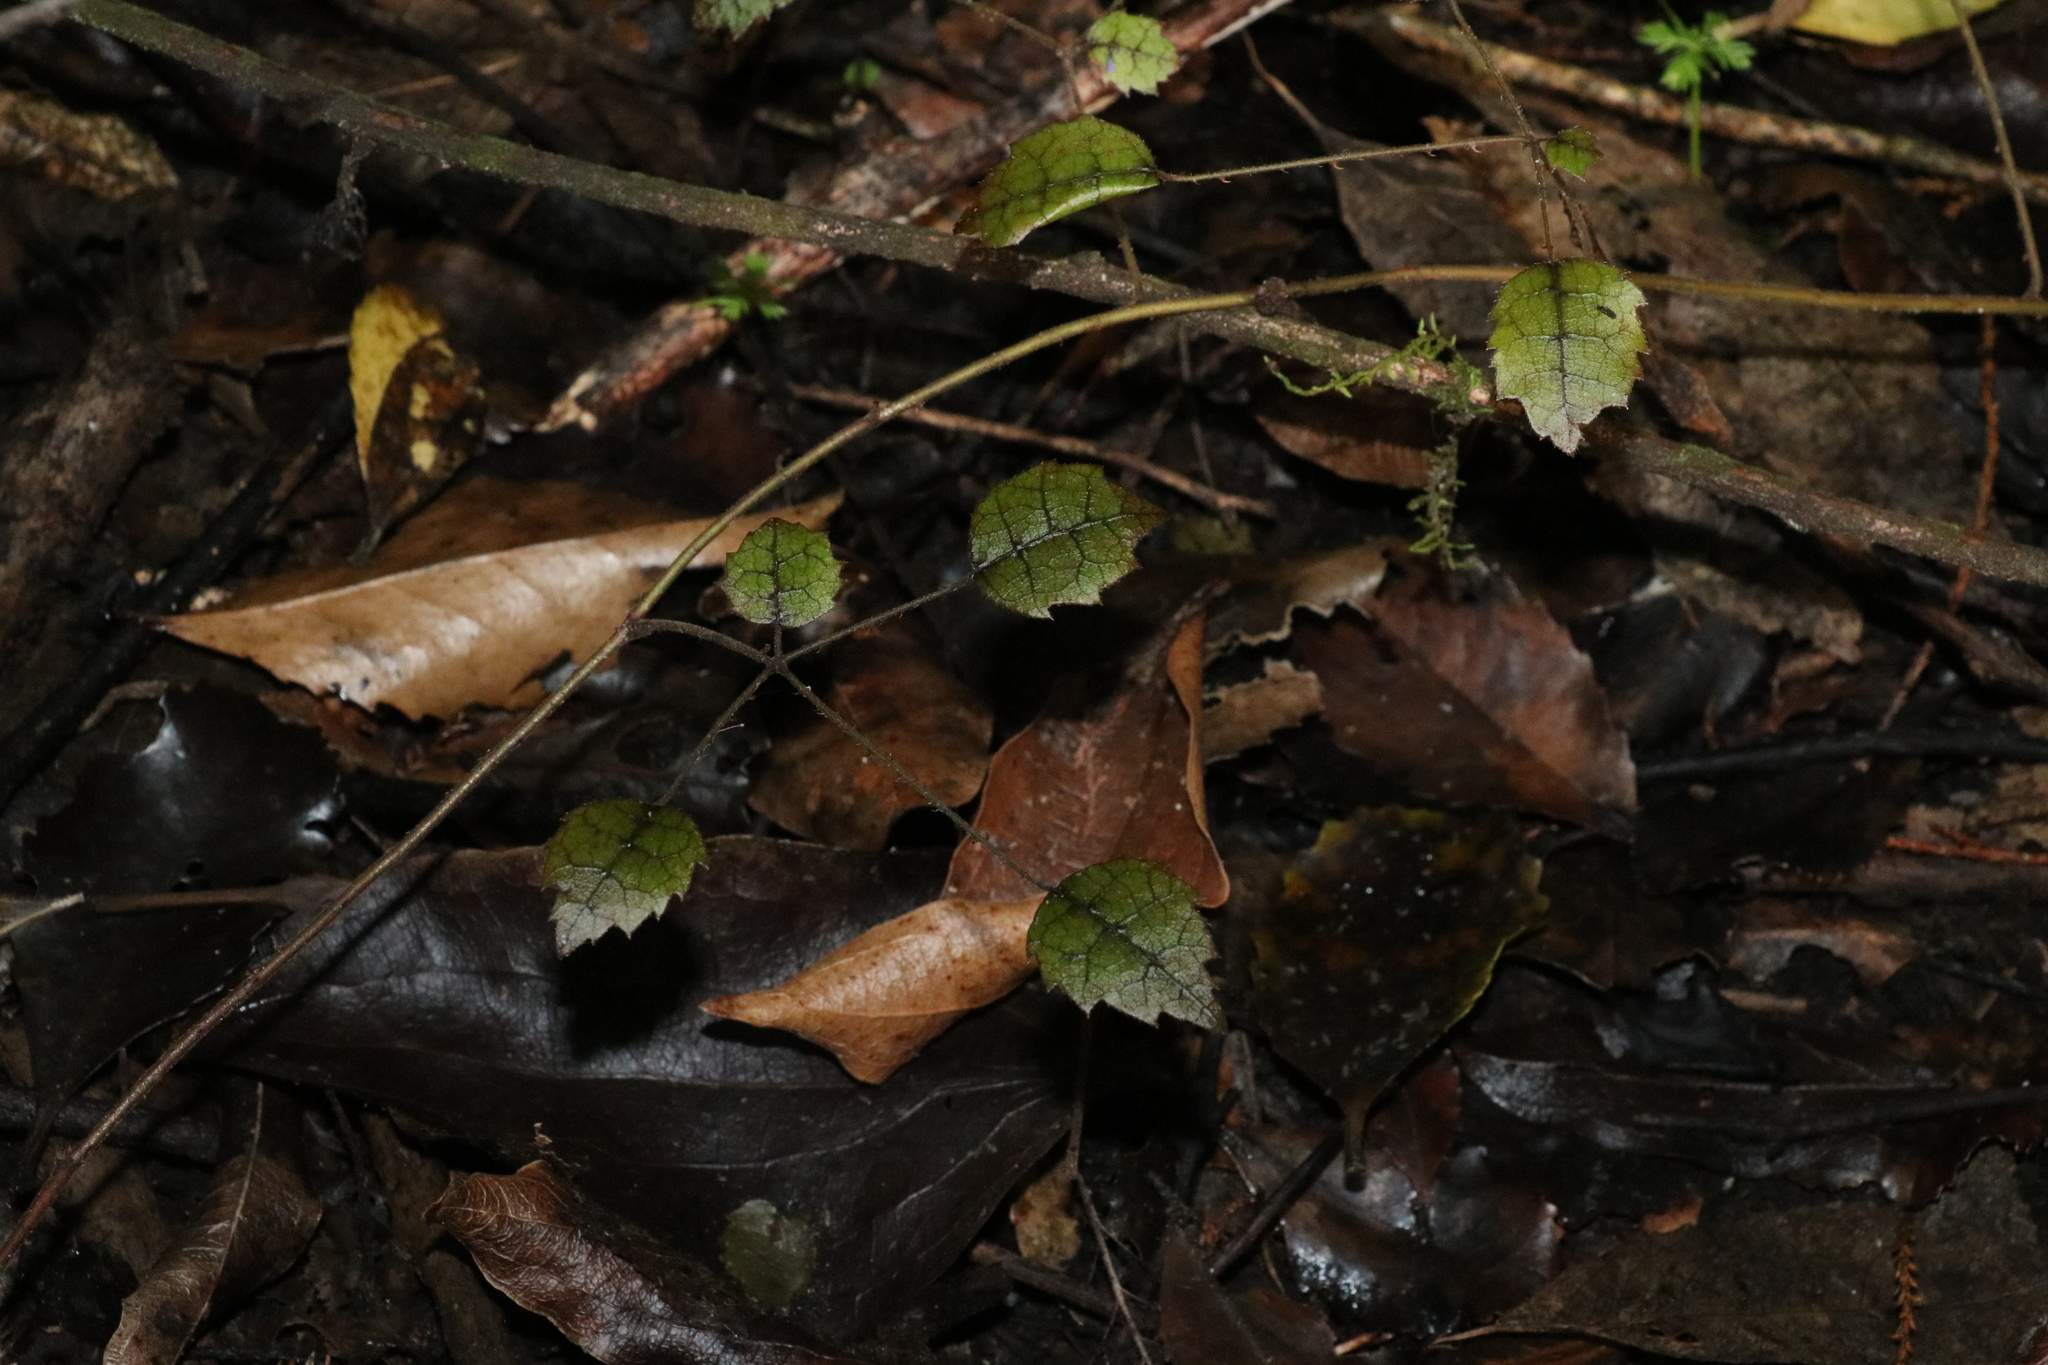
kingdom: Plantae
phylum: Tracheophyta
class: Magnoliopsida
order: Rosales
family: Rosaceae
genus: Rubus
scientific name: Rubus australis
